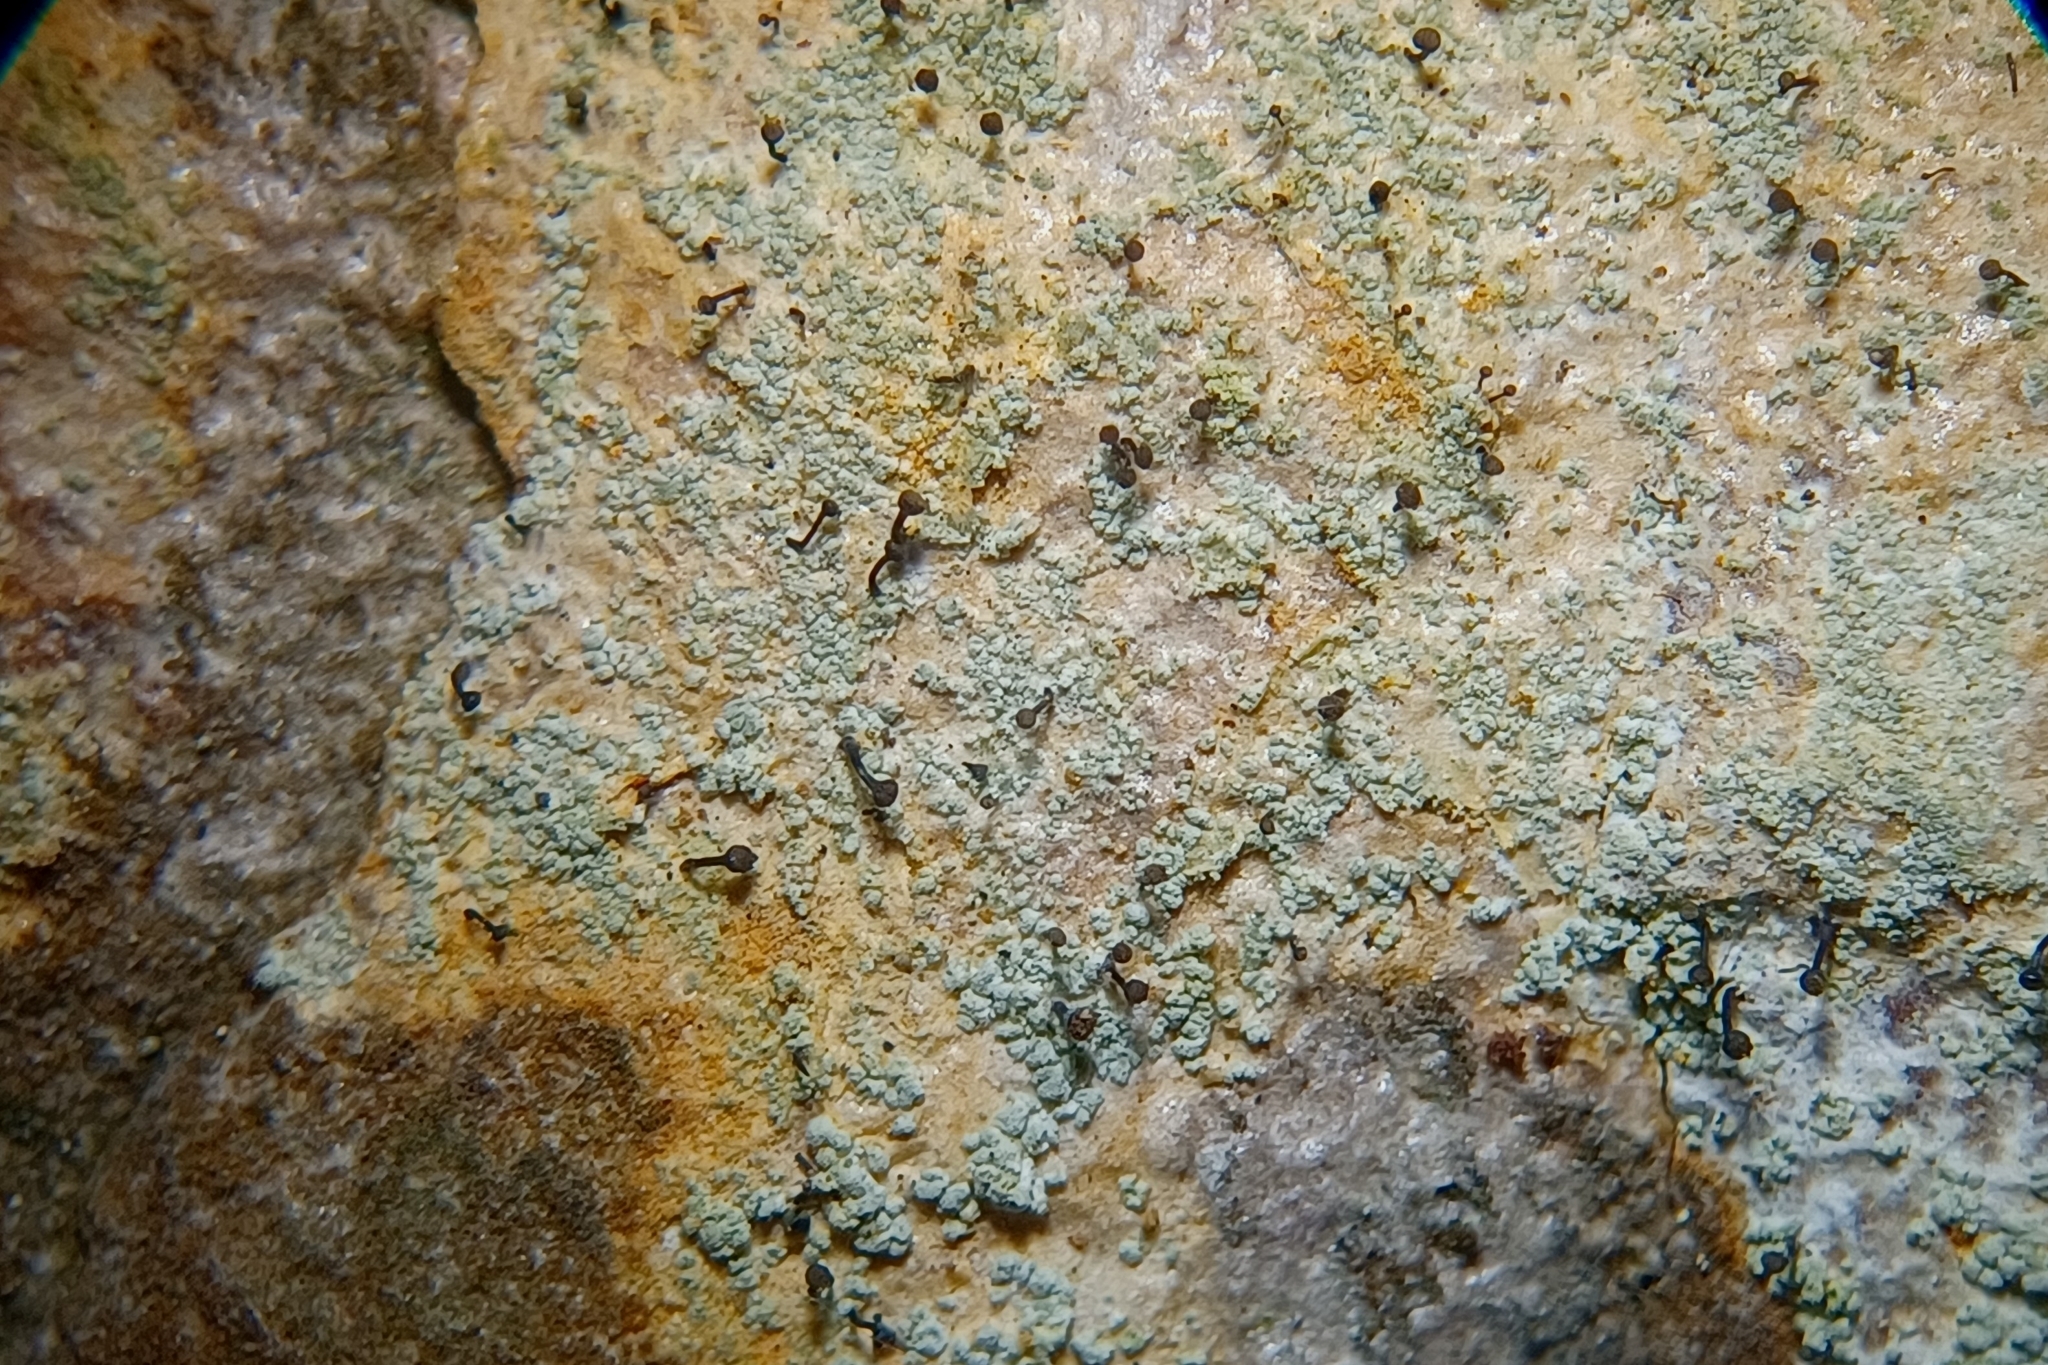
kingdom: Fungi
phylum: Ascomycota
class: Coniocybomycetes
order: Coniocybales
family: Coniocybaceae
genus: Chaenotheca
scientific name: Chaenotheca ferruginea
